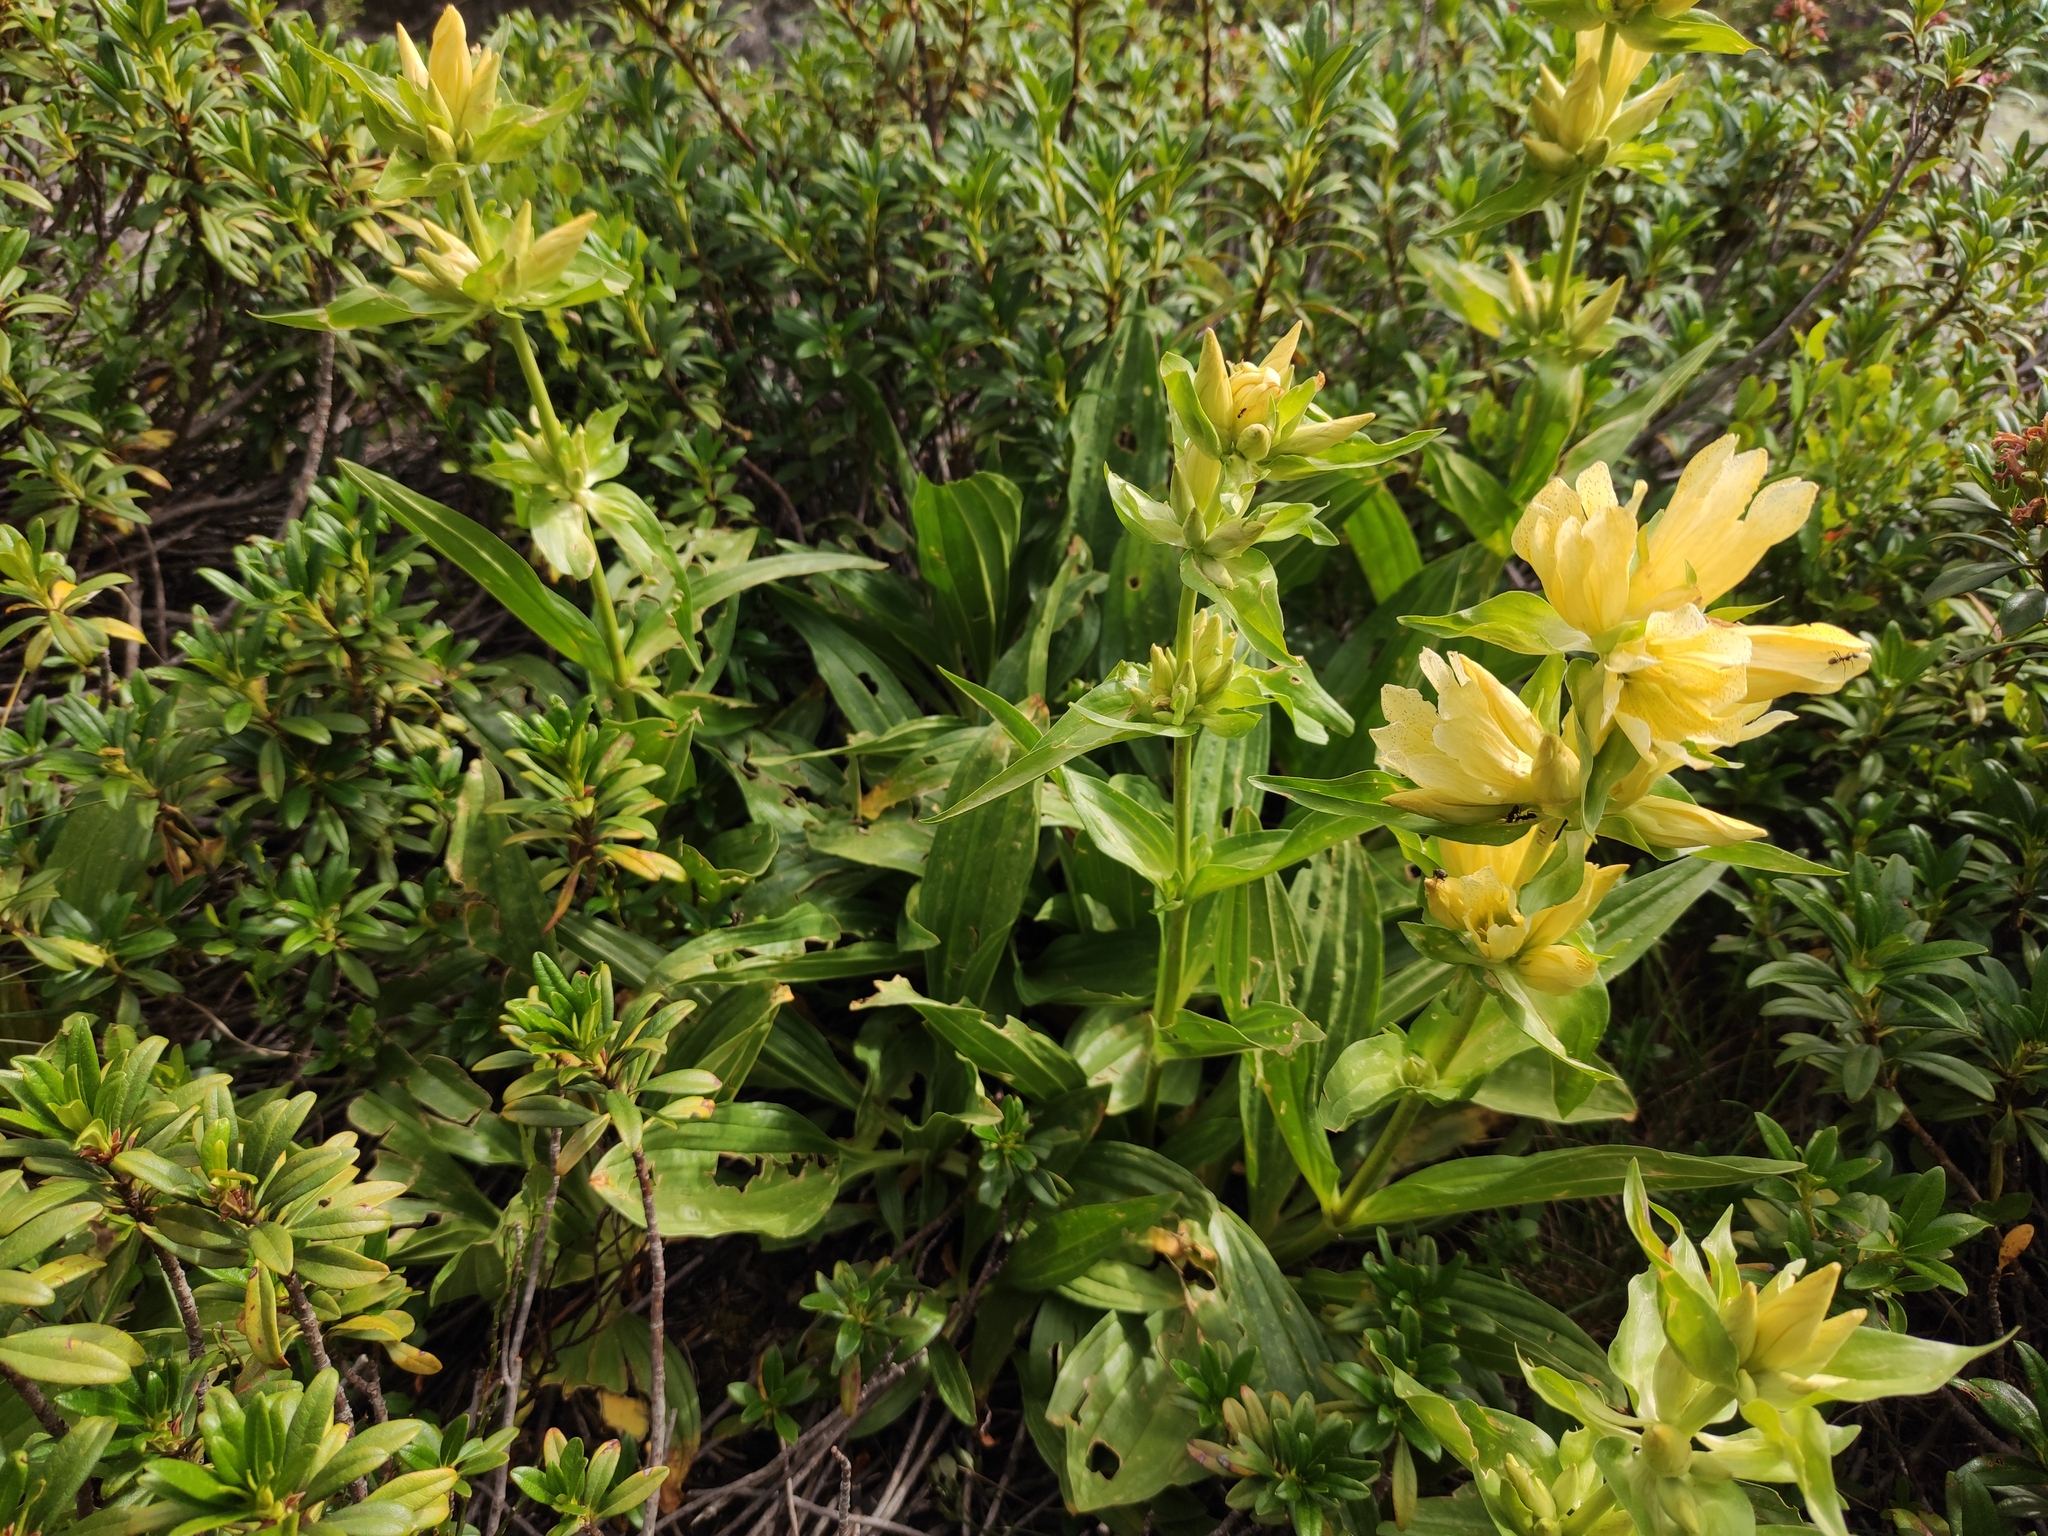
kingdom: Plantae
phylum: Tracheophyta
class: Magnoliopsida
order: Gentianales
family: Gentianaceae
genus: Gentiana
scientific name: Gentiana burseri
